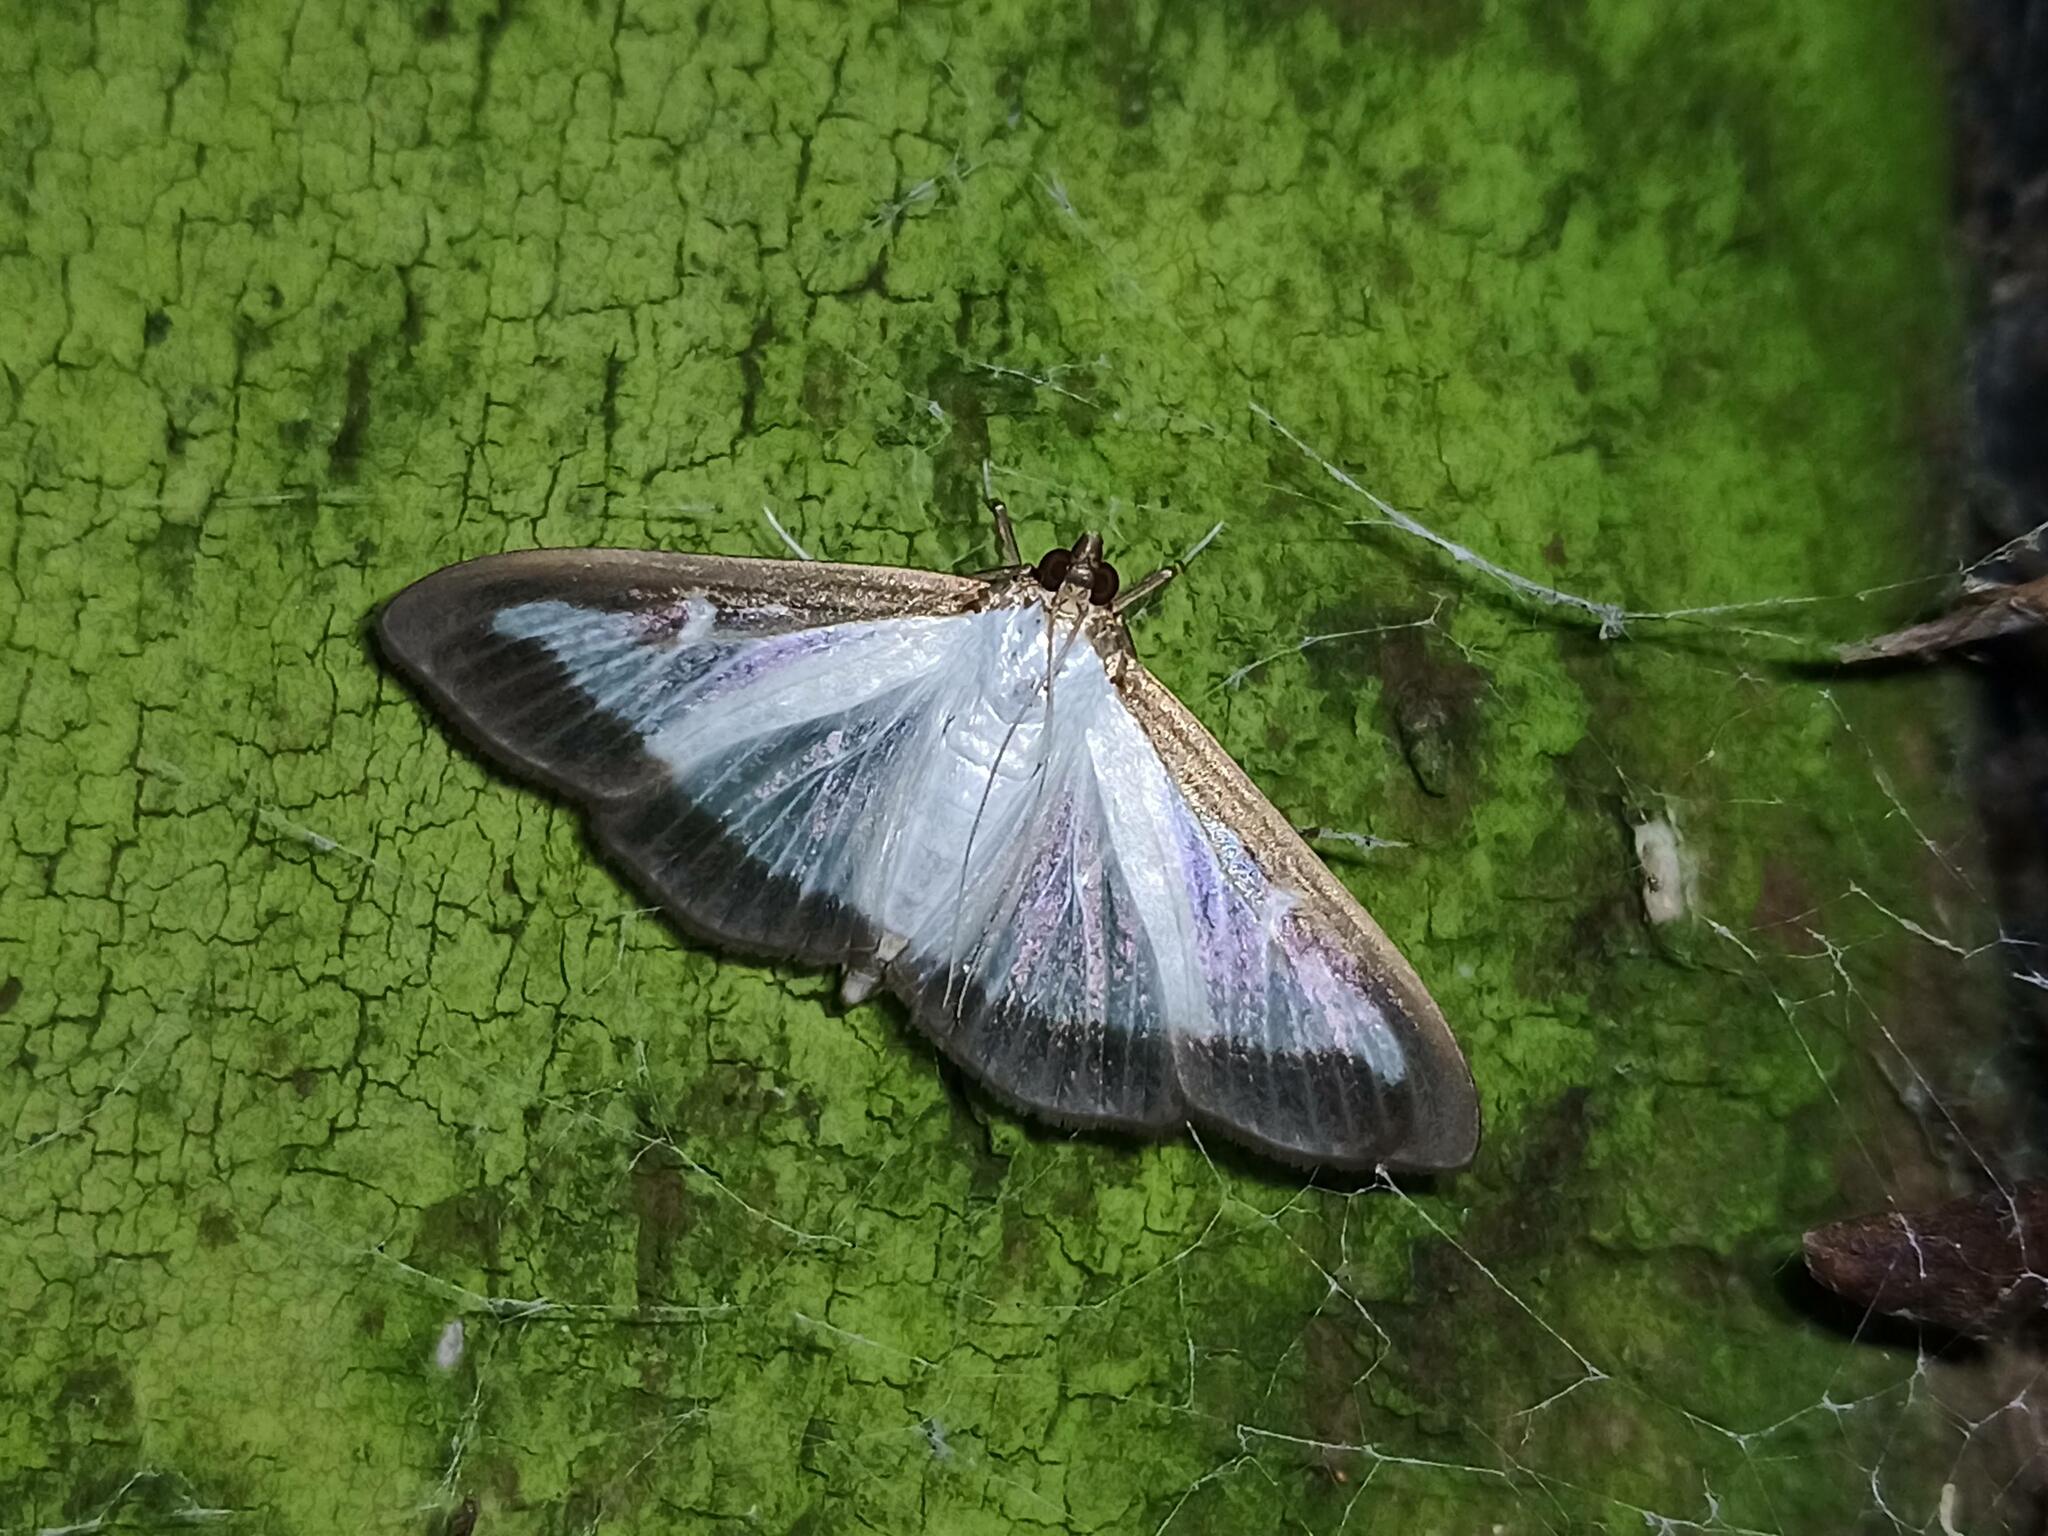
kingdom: Animalia
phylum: Arthropoda
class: Insecta
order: Lepidoptera
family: Crambidae
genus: Cydalima
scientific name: Cydalima perspectalis
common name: Box tree moth
